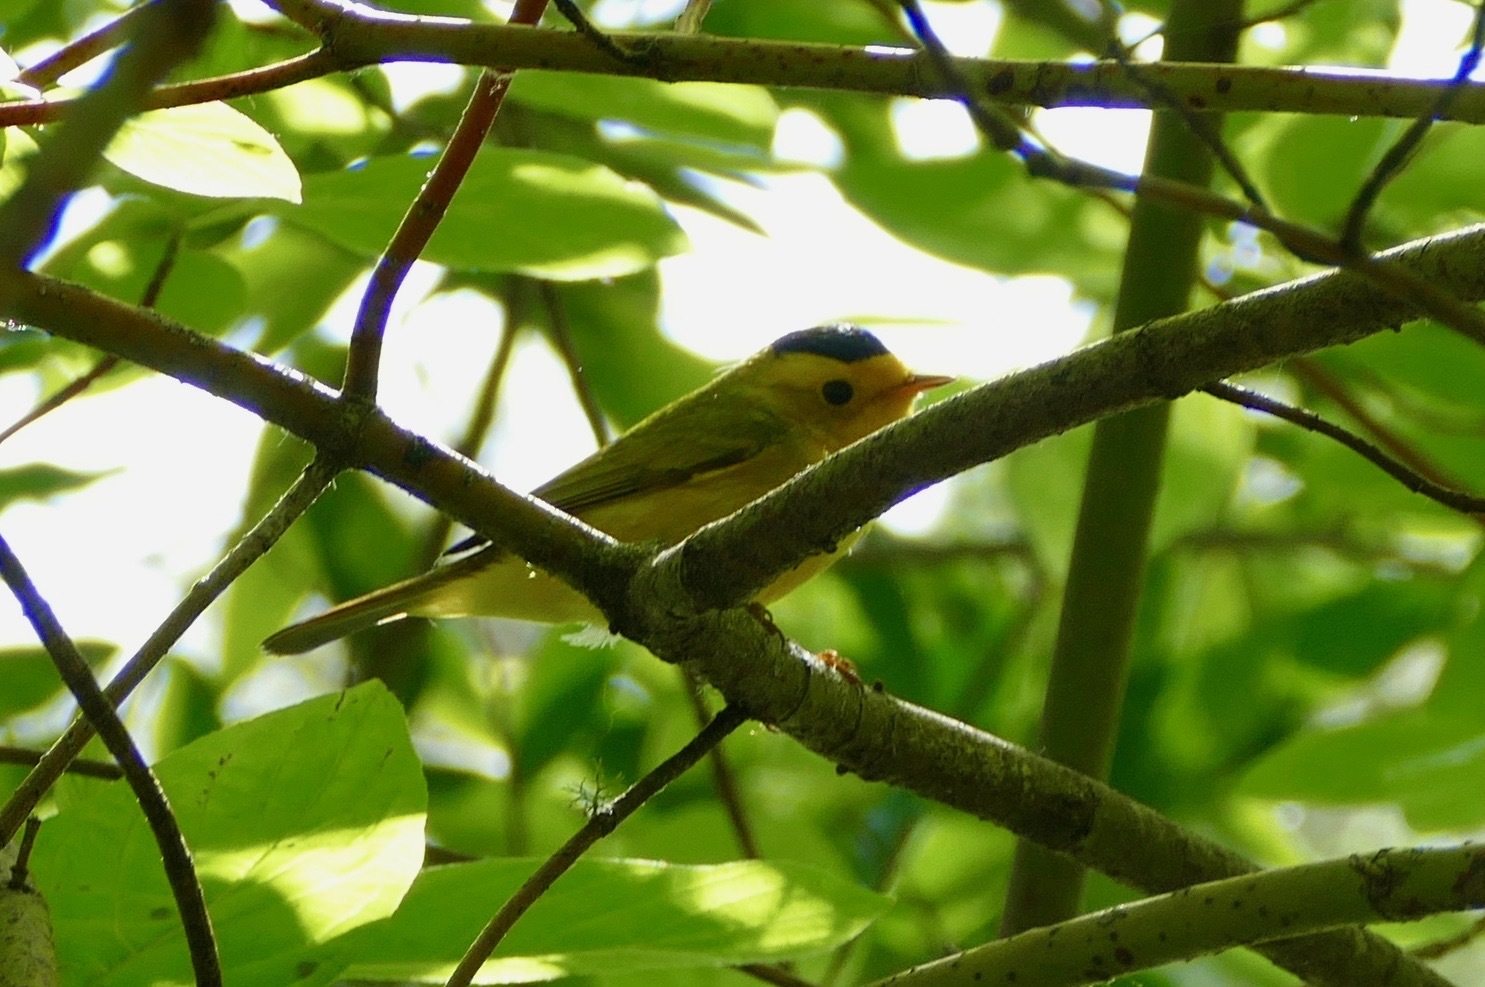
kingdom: Animalia
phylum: Chordata
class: Aves
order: Passeriformes
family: Parulidae
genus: Cardellina
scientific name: Cardellina pusilla
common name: Wilson's warbler
